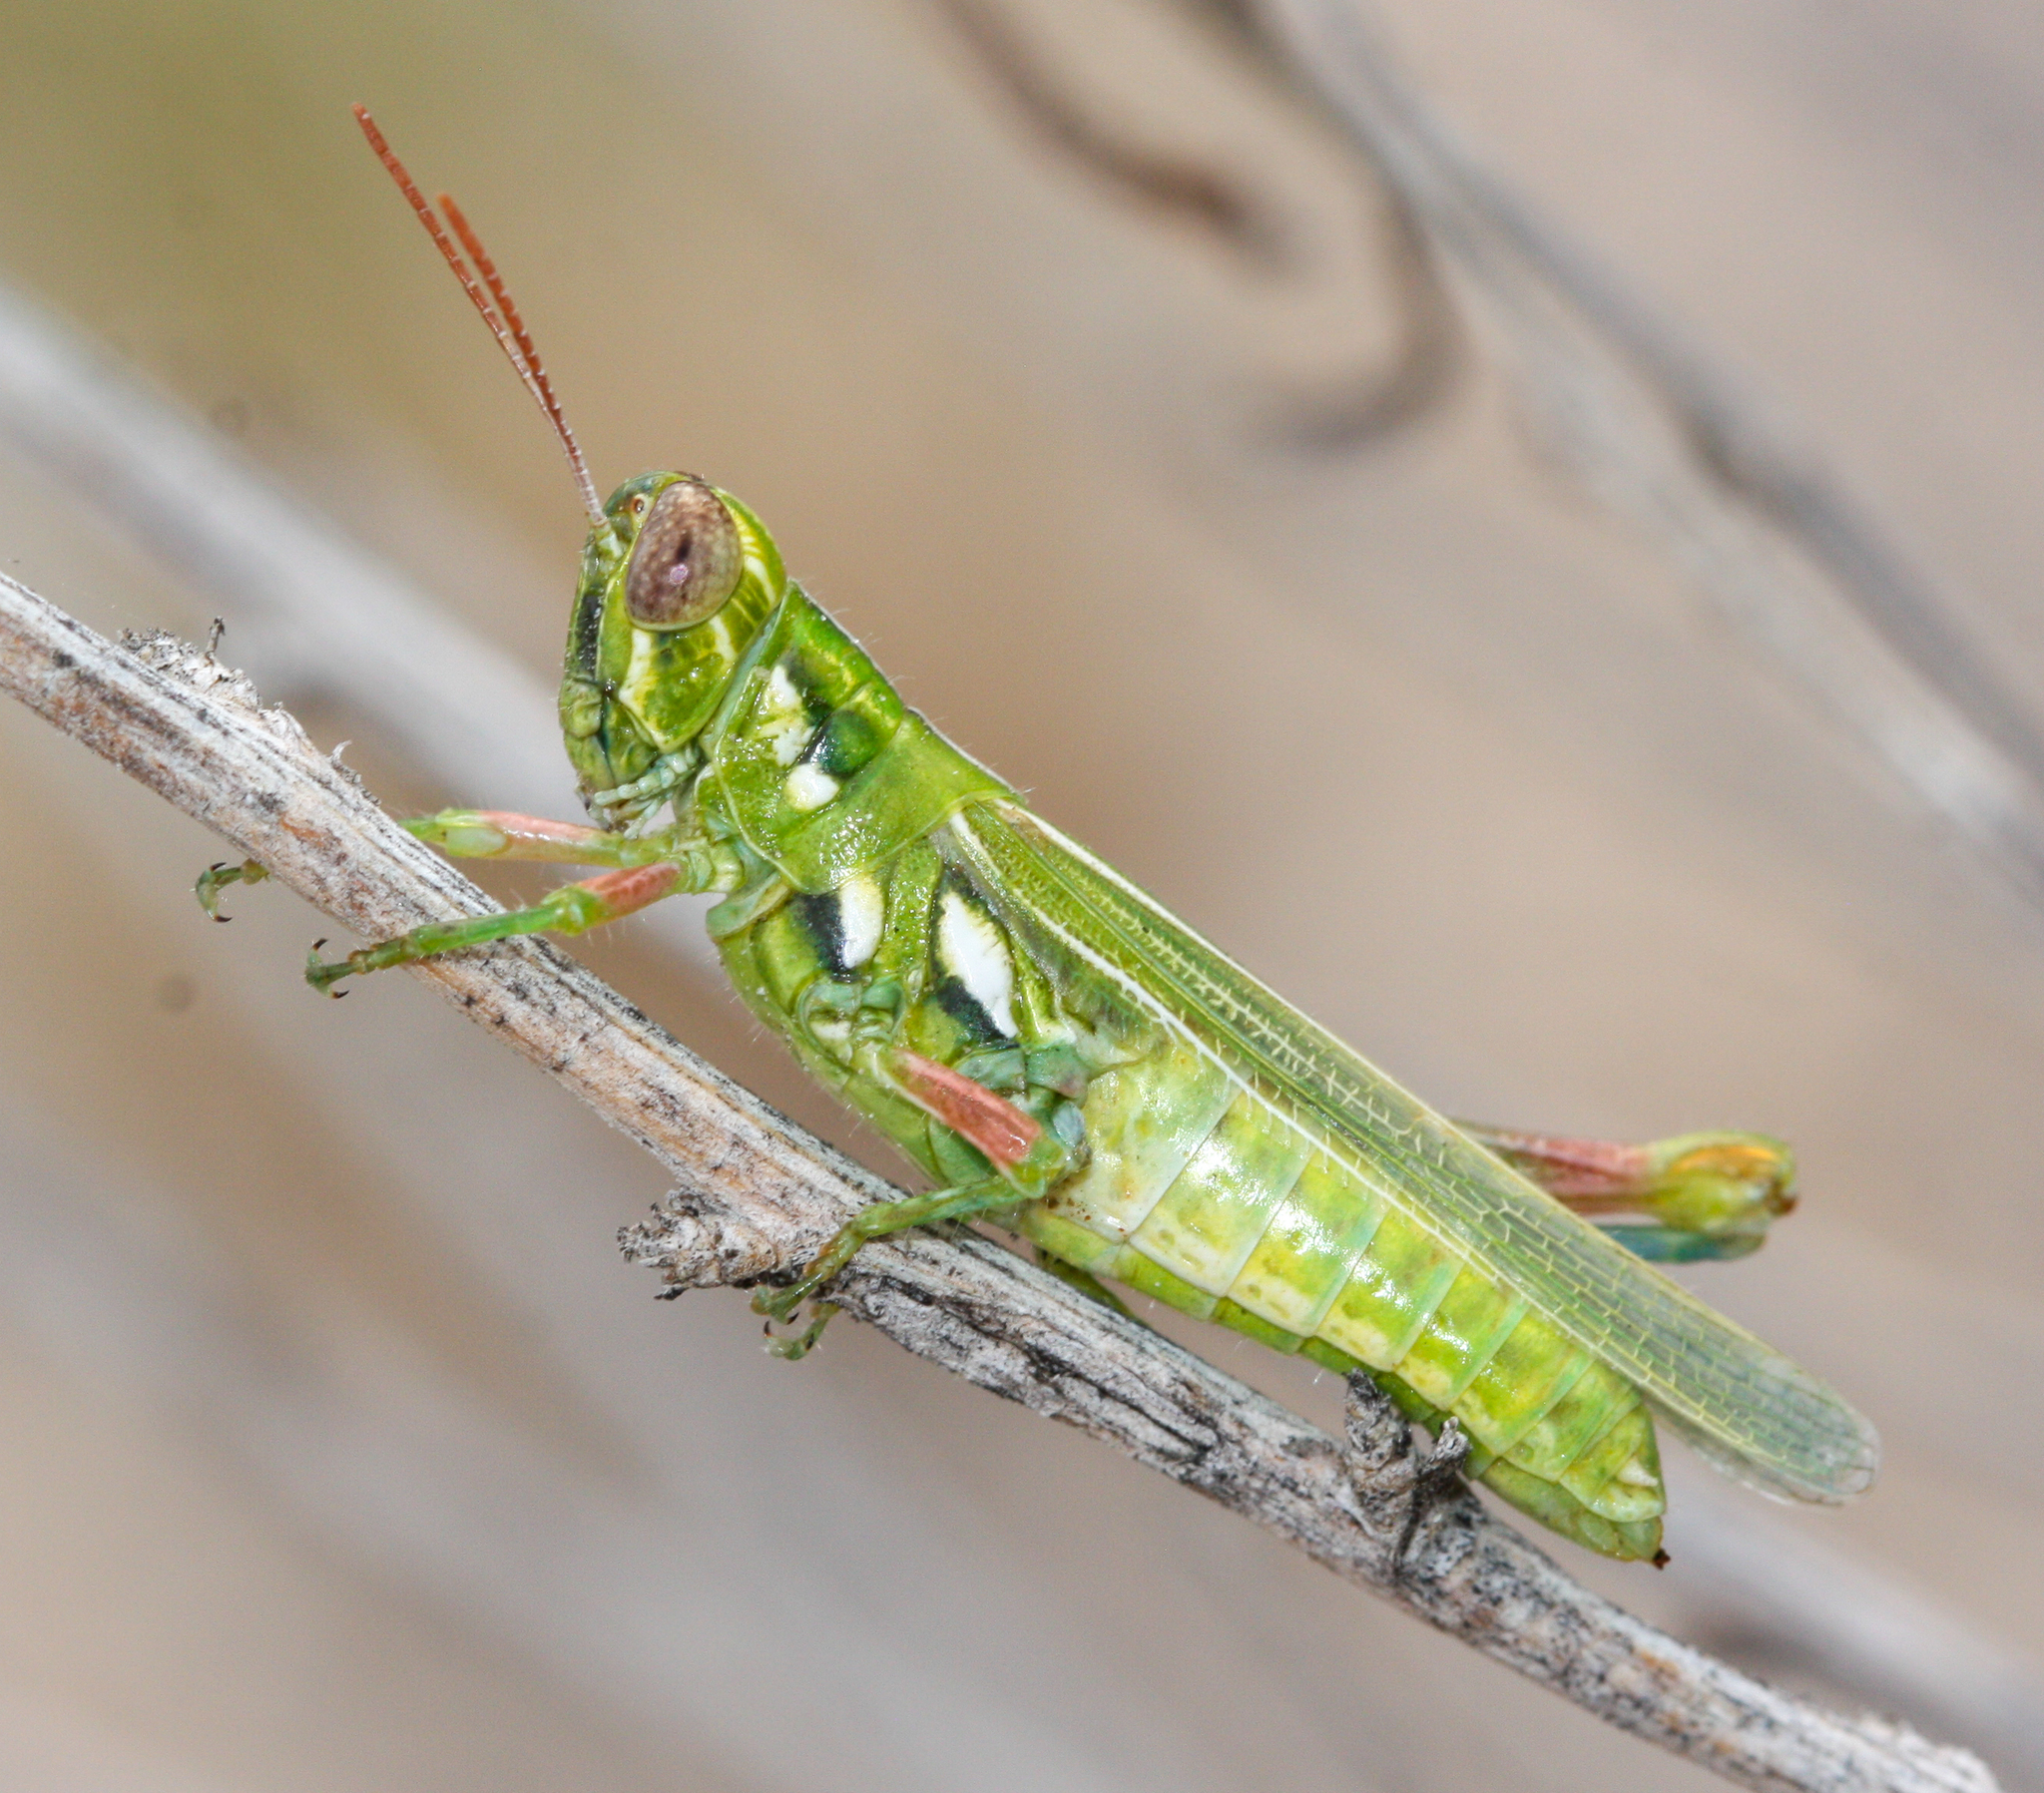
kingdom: Animalia
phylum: Arthropoda
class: Insecta
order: Orthoptera
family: Acrididae
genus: Hesperotettix
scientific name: Hesperotettix viridis
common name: Meadow purple-striped grasshopper
